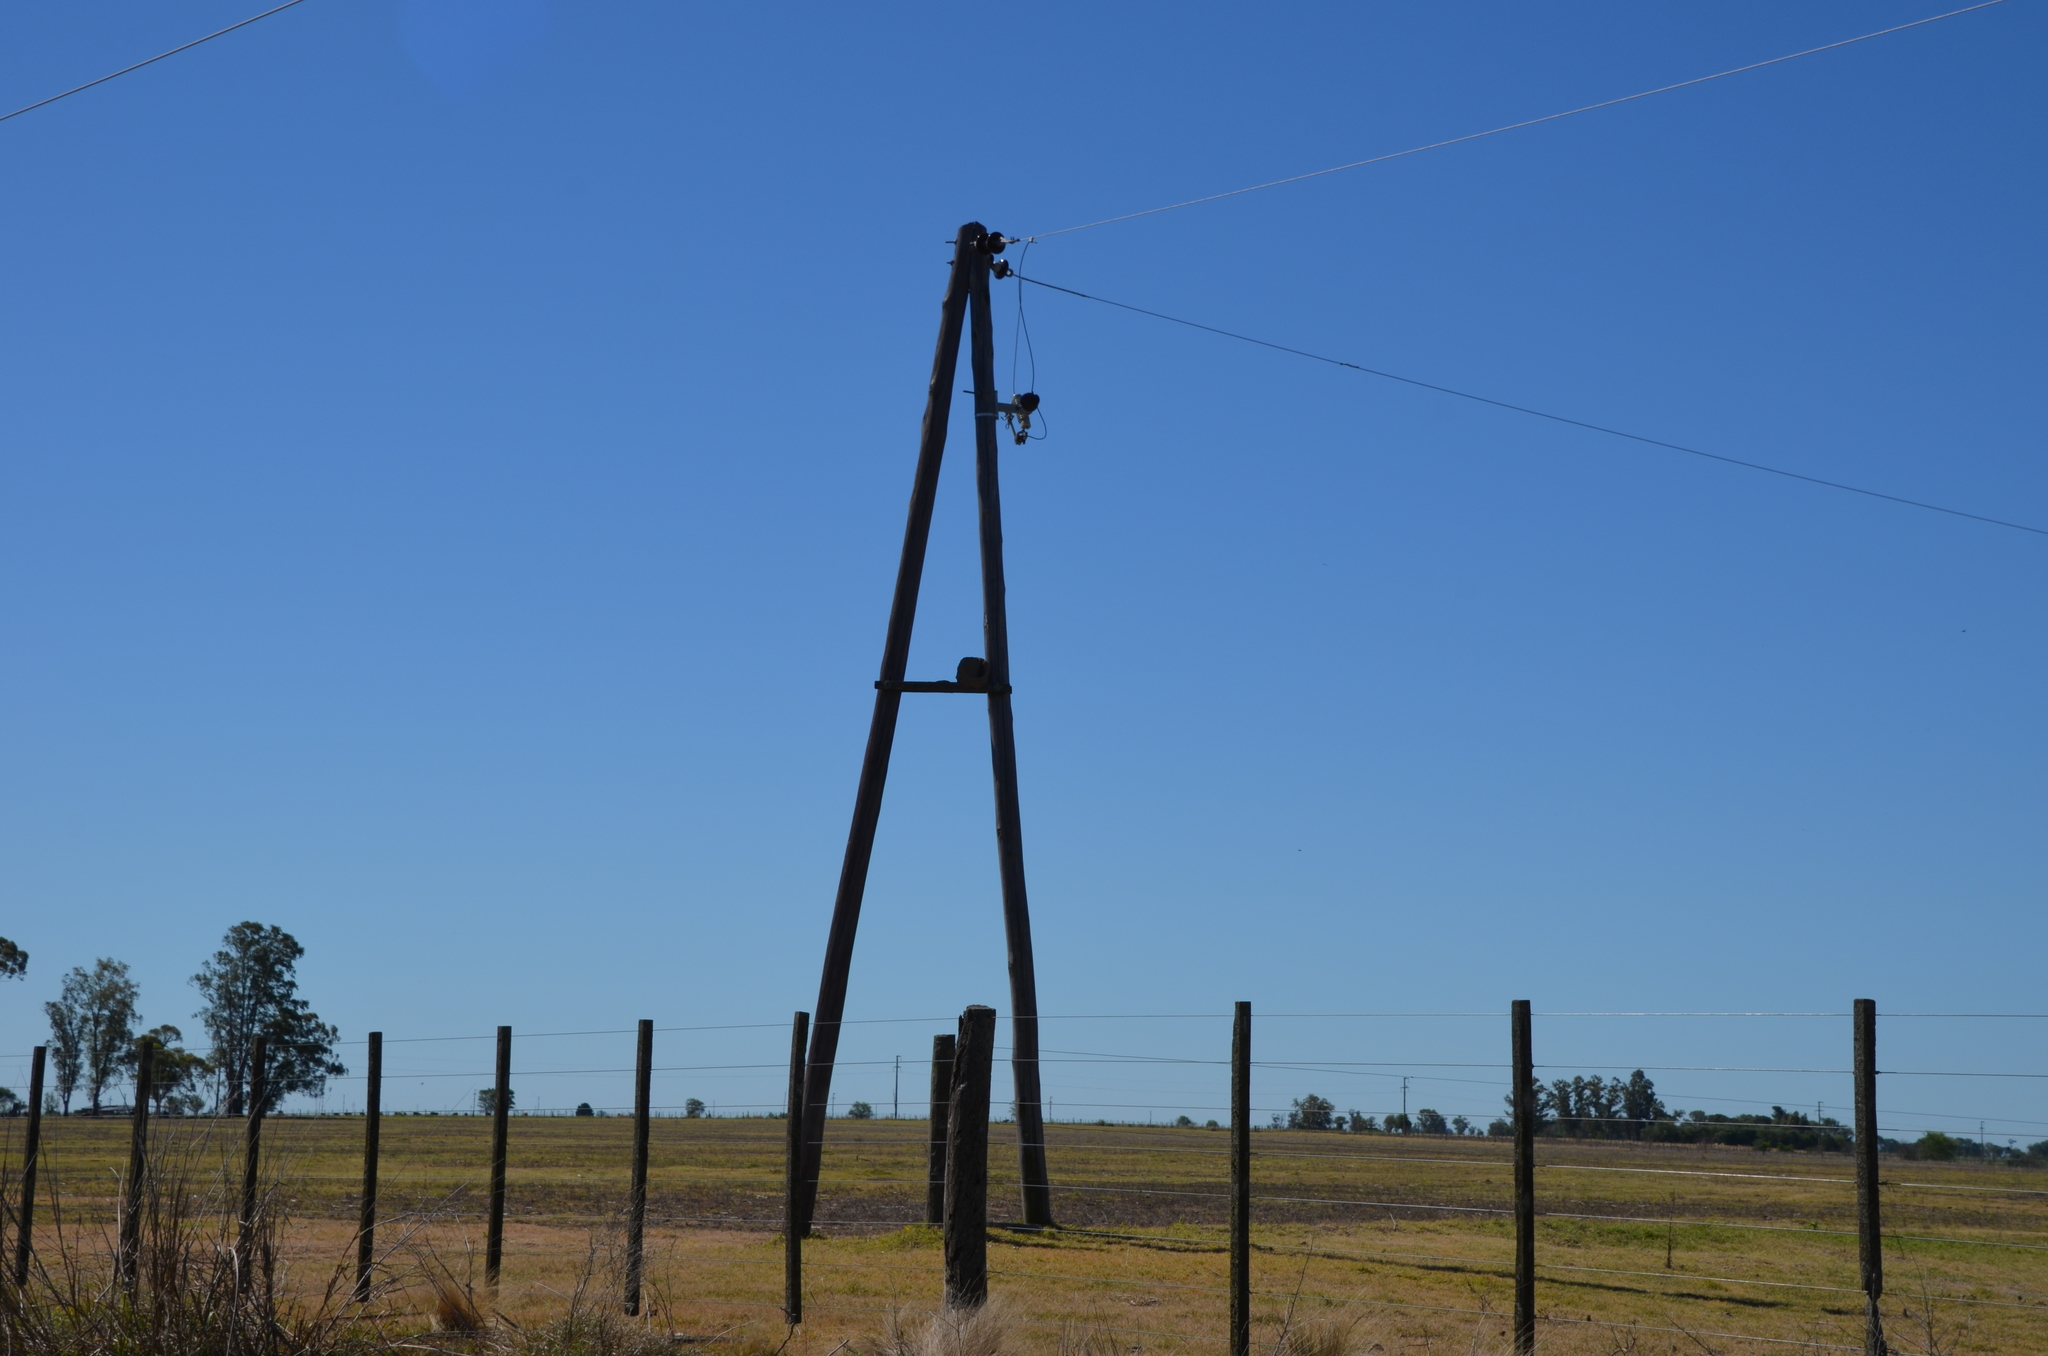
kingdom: Animalia
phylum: Chordata
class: Aves
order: Passeriformes
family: Furnariidae
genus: Furnarius
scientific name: Furnarius rufus
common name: Rufous hornero
